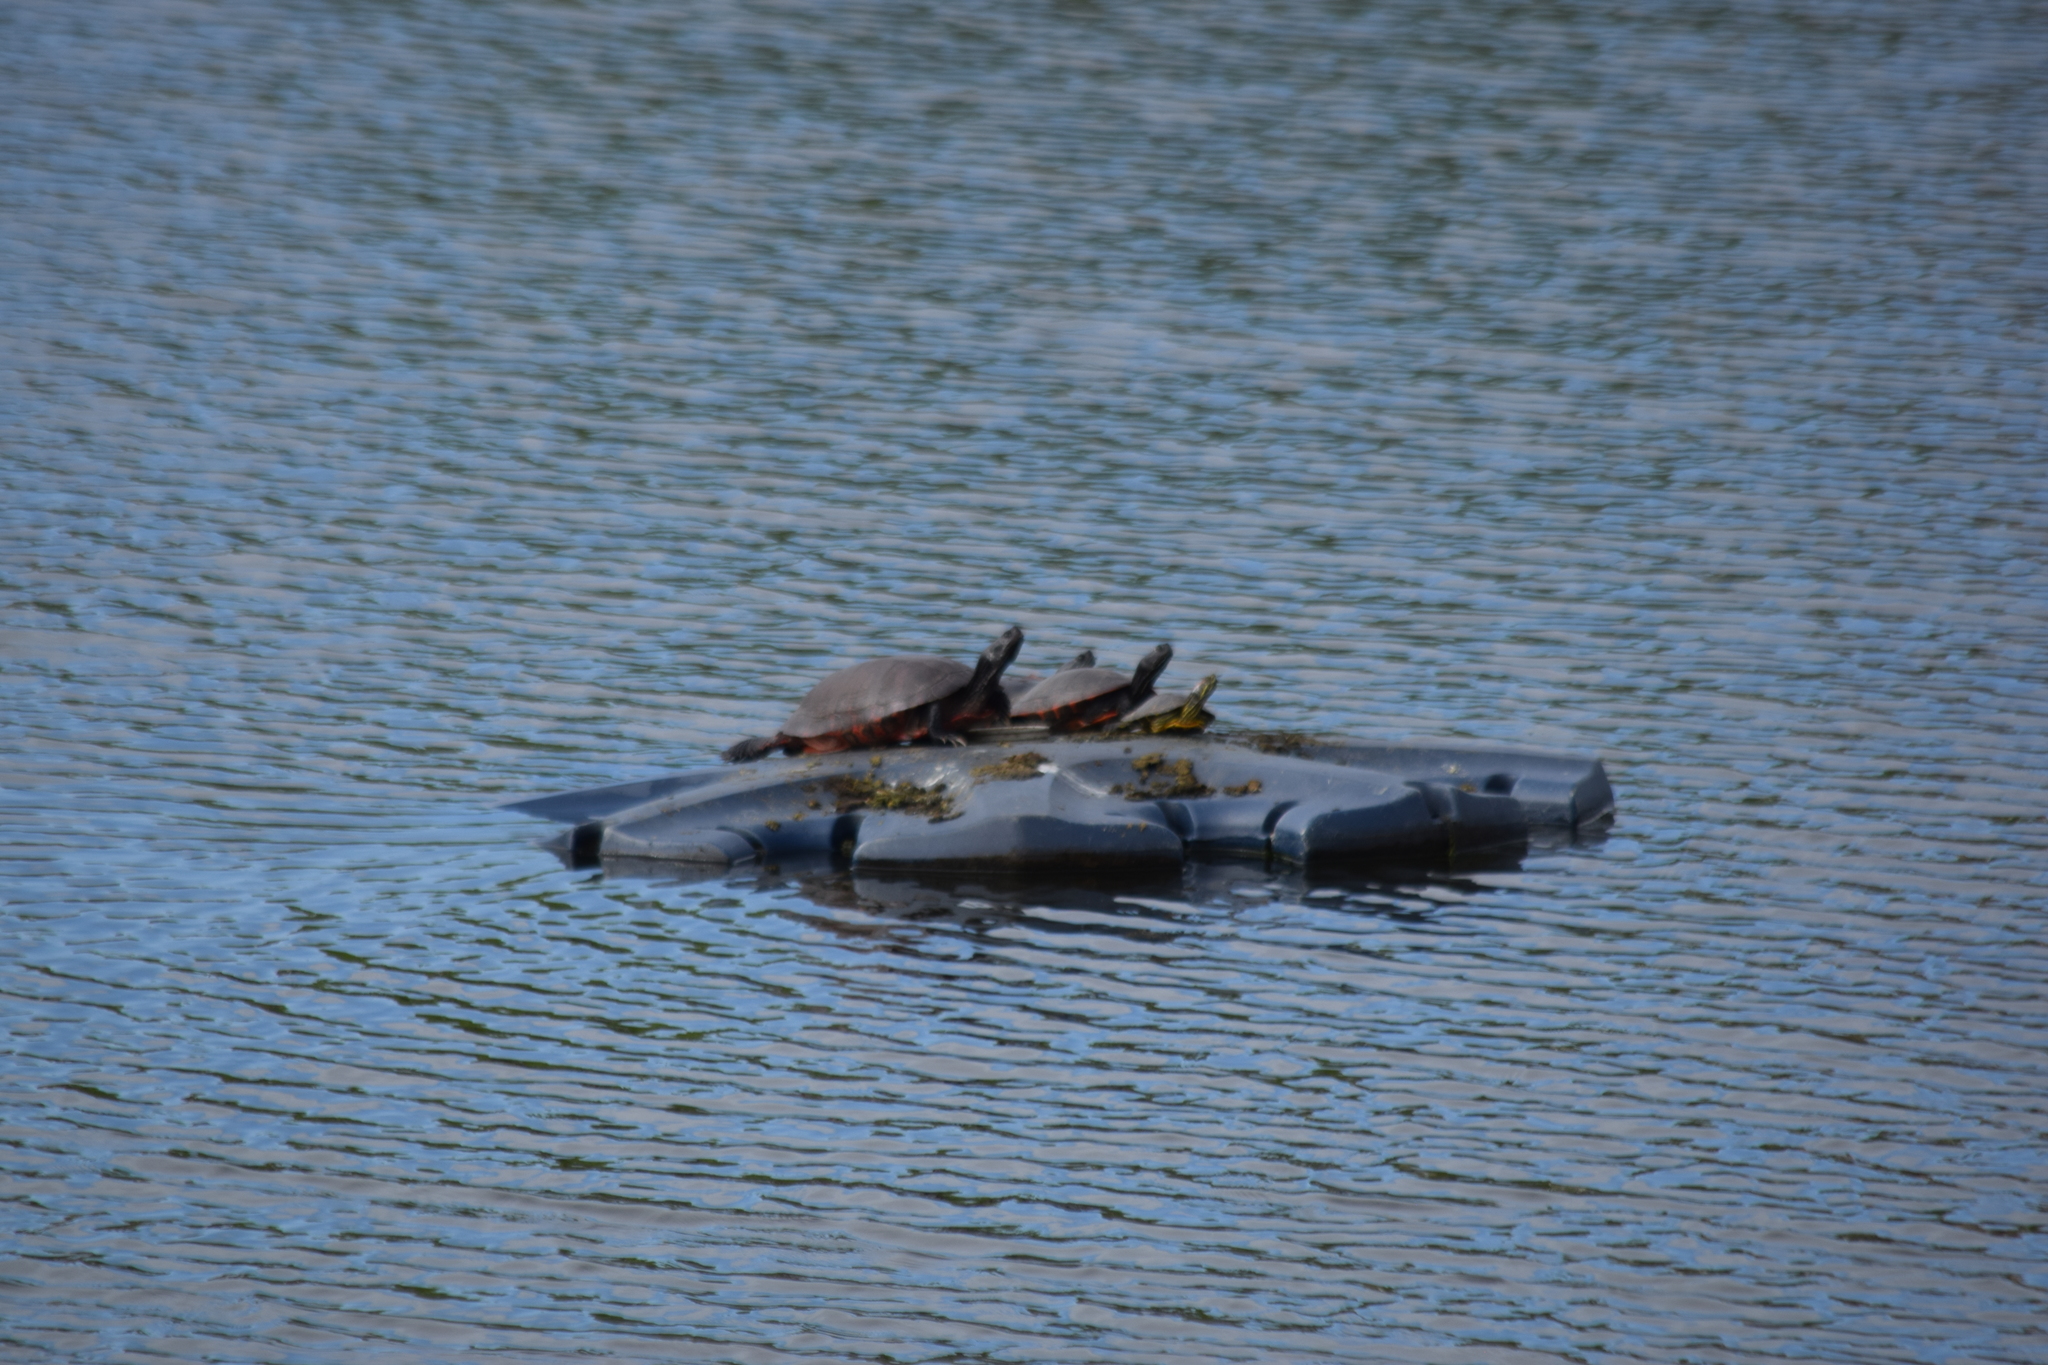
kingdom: Animalia
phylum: Chordata
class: Testudines
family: Emydidae
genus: Pseudemys
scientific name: Pseudemys rubriventris
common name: American red-bellied turtle
